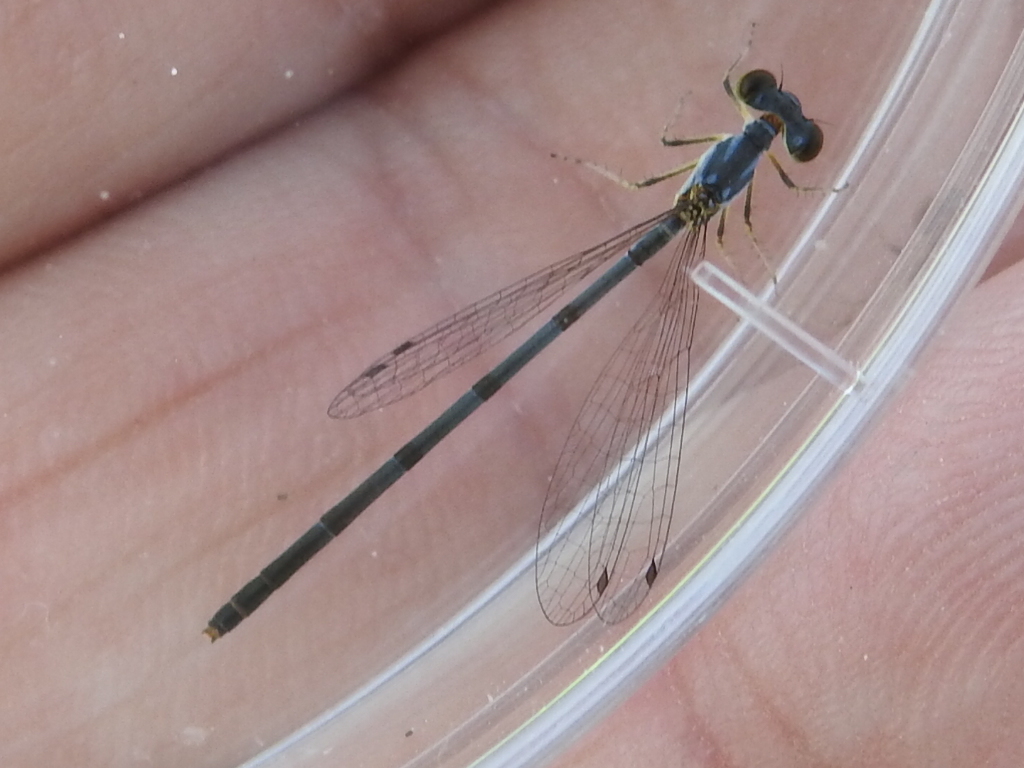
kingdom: Animalia
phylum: Arthropoda
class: Insecta
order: Odonata
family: Coenagrionidae
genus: Ischnura
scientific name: Ischnura posita
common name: Fragile forktail
